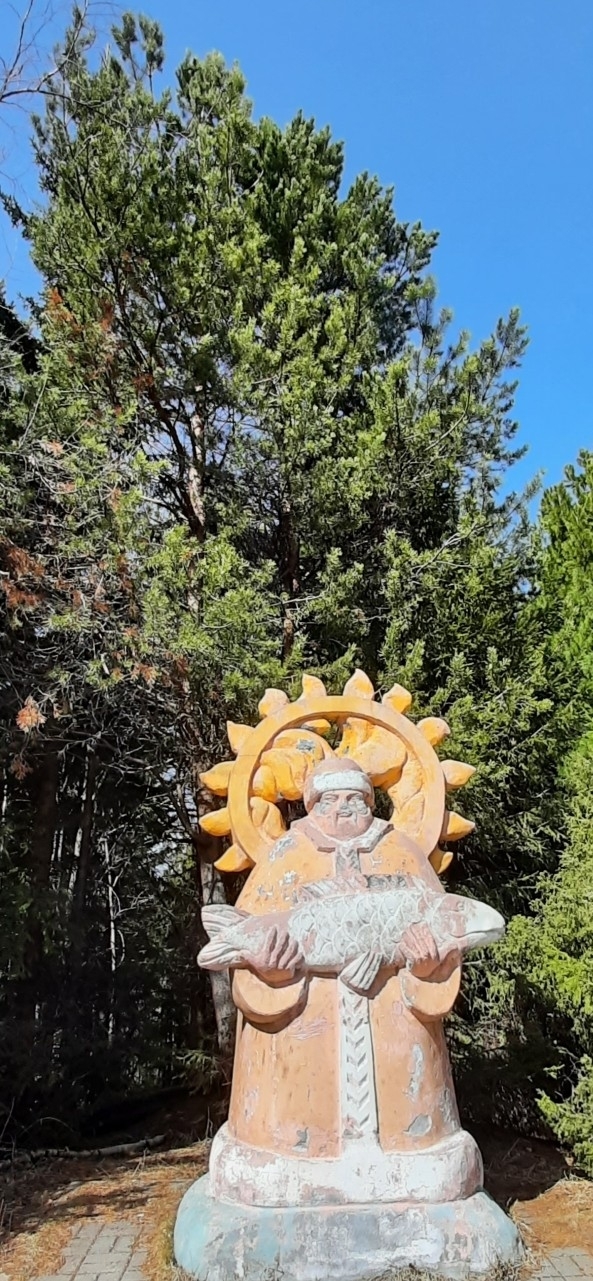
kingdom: Plantae
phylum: Tracheophyta
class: Pinopsida
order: Pinales
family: Pinaceae
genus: Pinus
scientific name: Pinus sibirica
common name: Siberian pine
